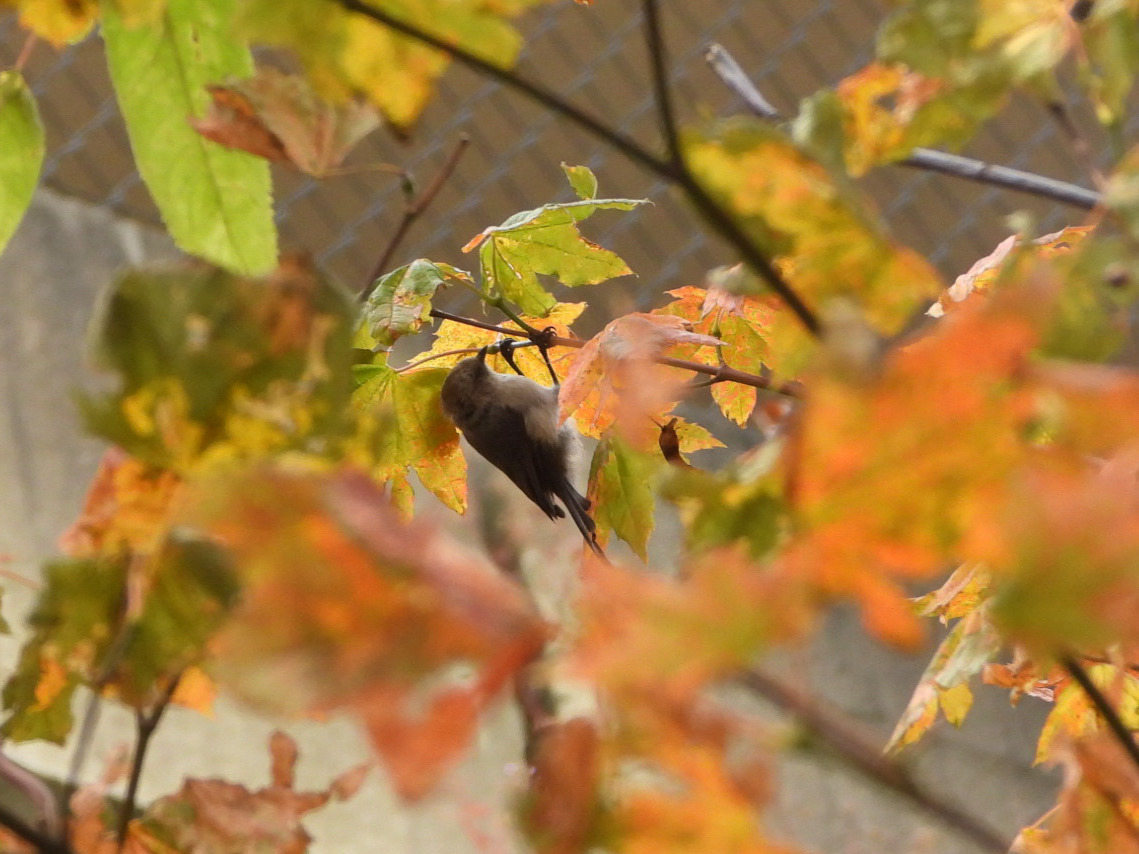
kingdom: Animalia
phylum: Chordata
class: Aves
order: Passeriformes
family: Aegithalidae
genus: Psaltriparus
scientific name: Psaltriparus minimus
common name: American bushtit
